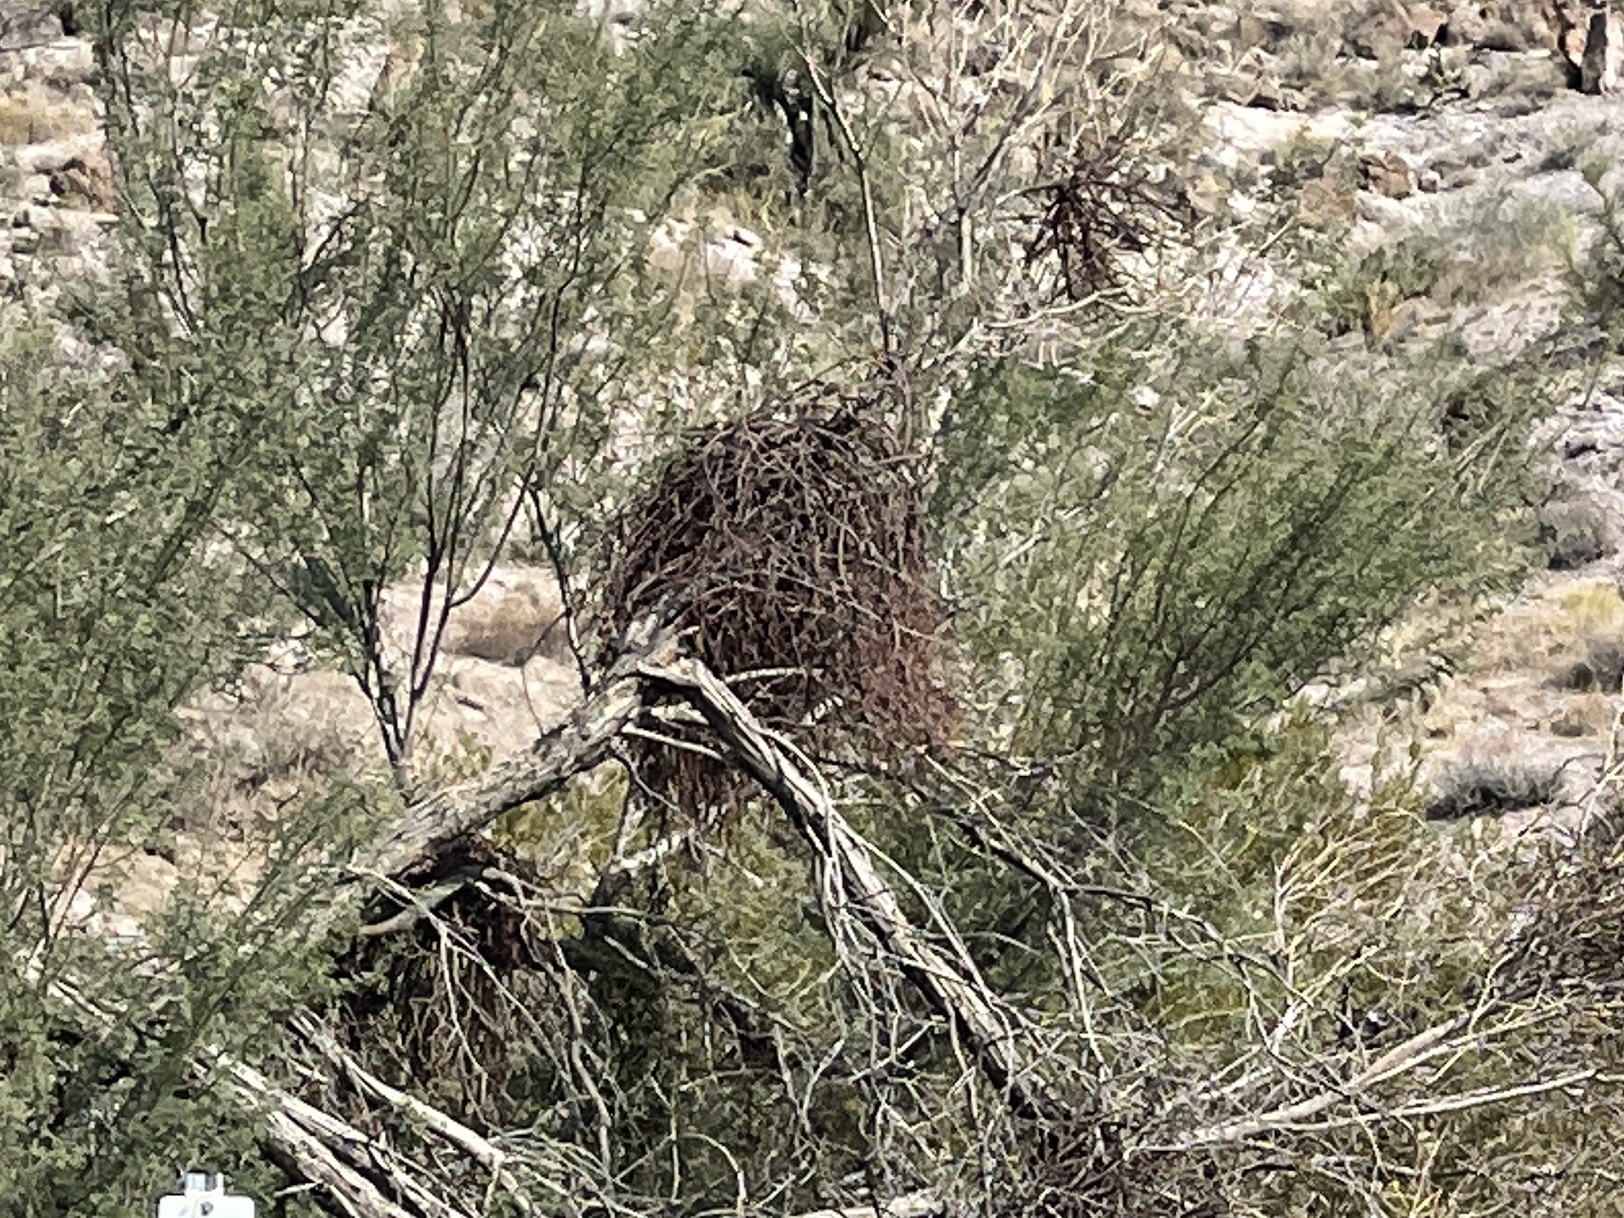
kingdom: Plantae
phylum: Tracheophyta
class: Magnoliopsida
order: Santalales
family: Viscaceae
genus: Phoradendron
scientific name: Phoradendron californicum
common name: Acacia mistletoe
